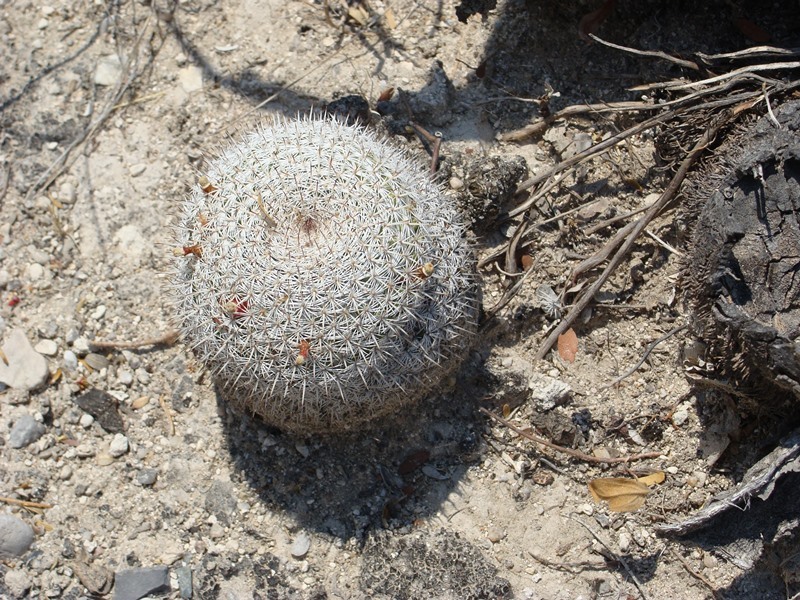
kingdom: Plantae
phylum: Tracheophyta
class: Magnoliopsida
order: Caryophyllales
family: Cactaceae
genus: Mammillaria
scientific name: Mammillaria haageana
